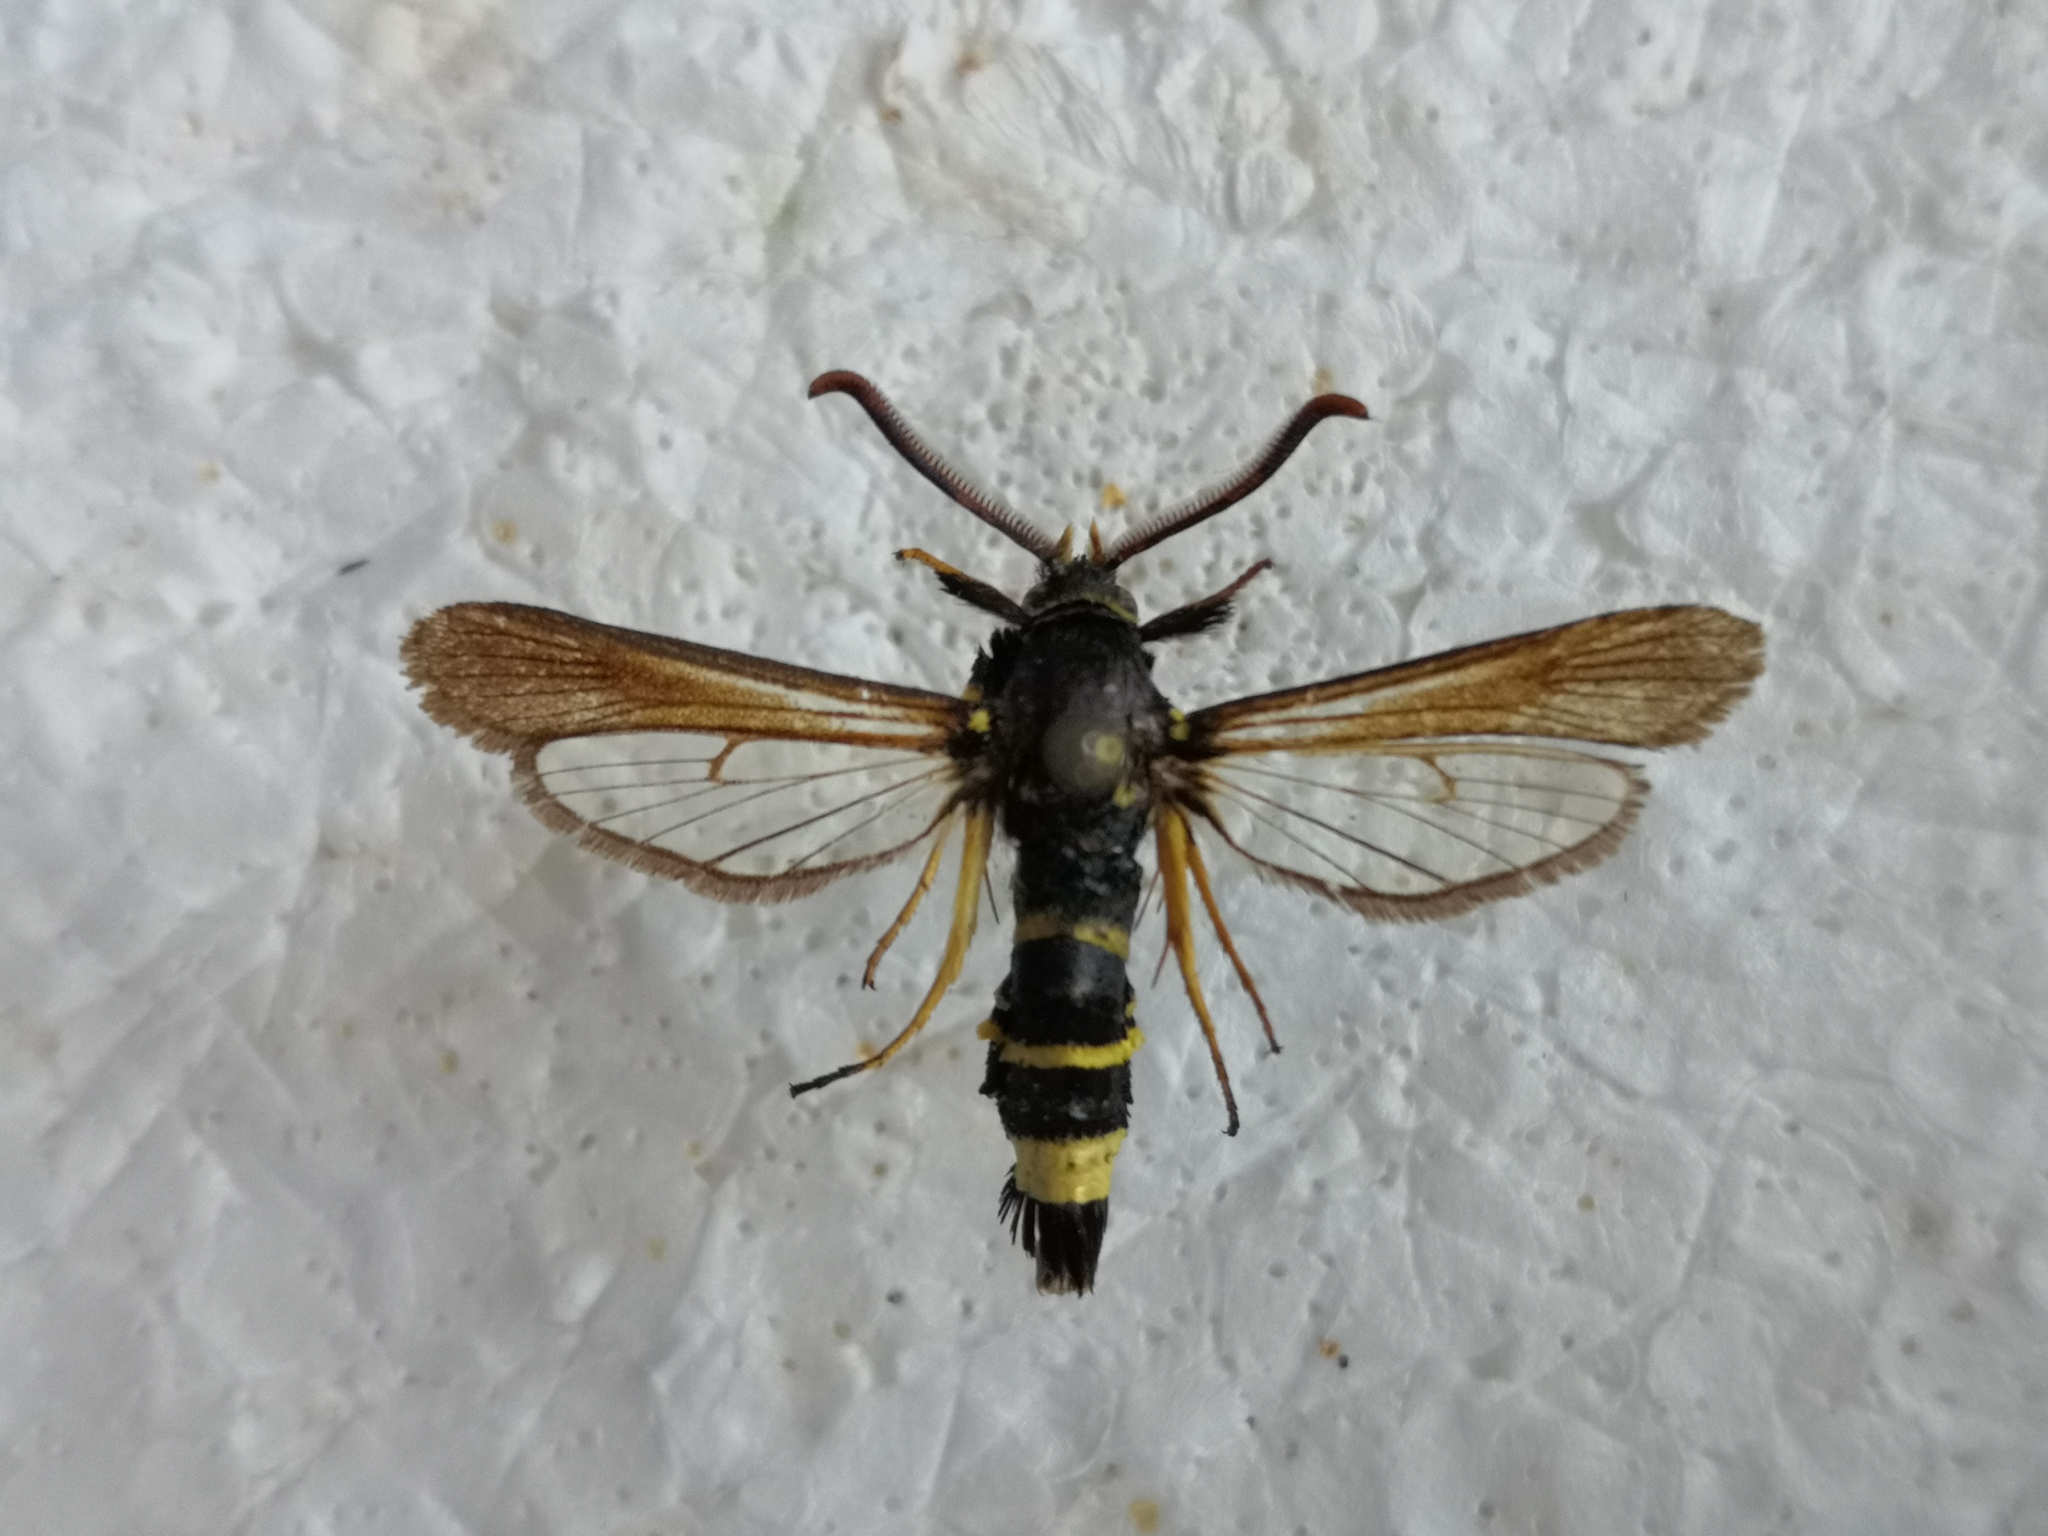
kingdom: Animalia
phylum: Arthropoda
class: Insecta
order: Lepidoptera
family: Sesiidae
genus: Paranthrene
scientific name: Paranthrene tabaniformis
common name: Dusky clearwing
